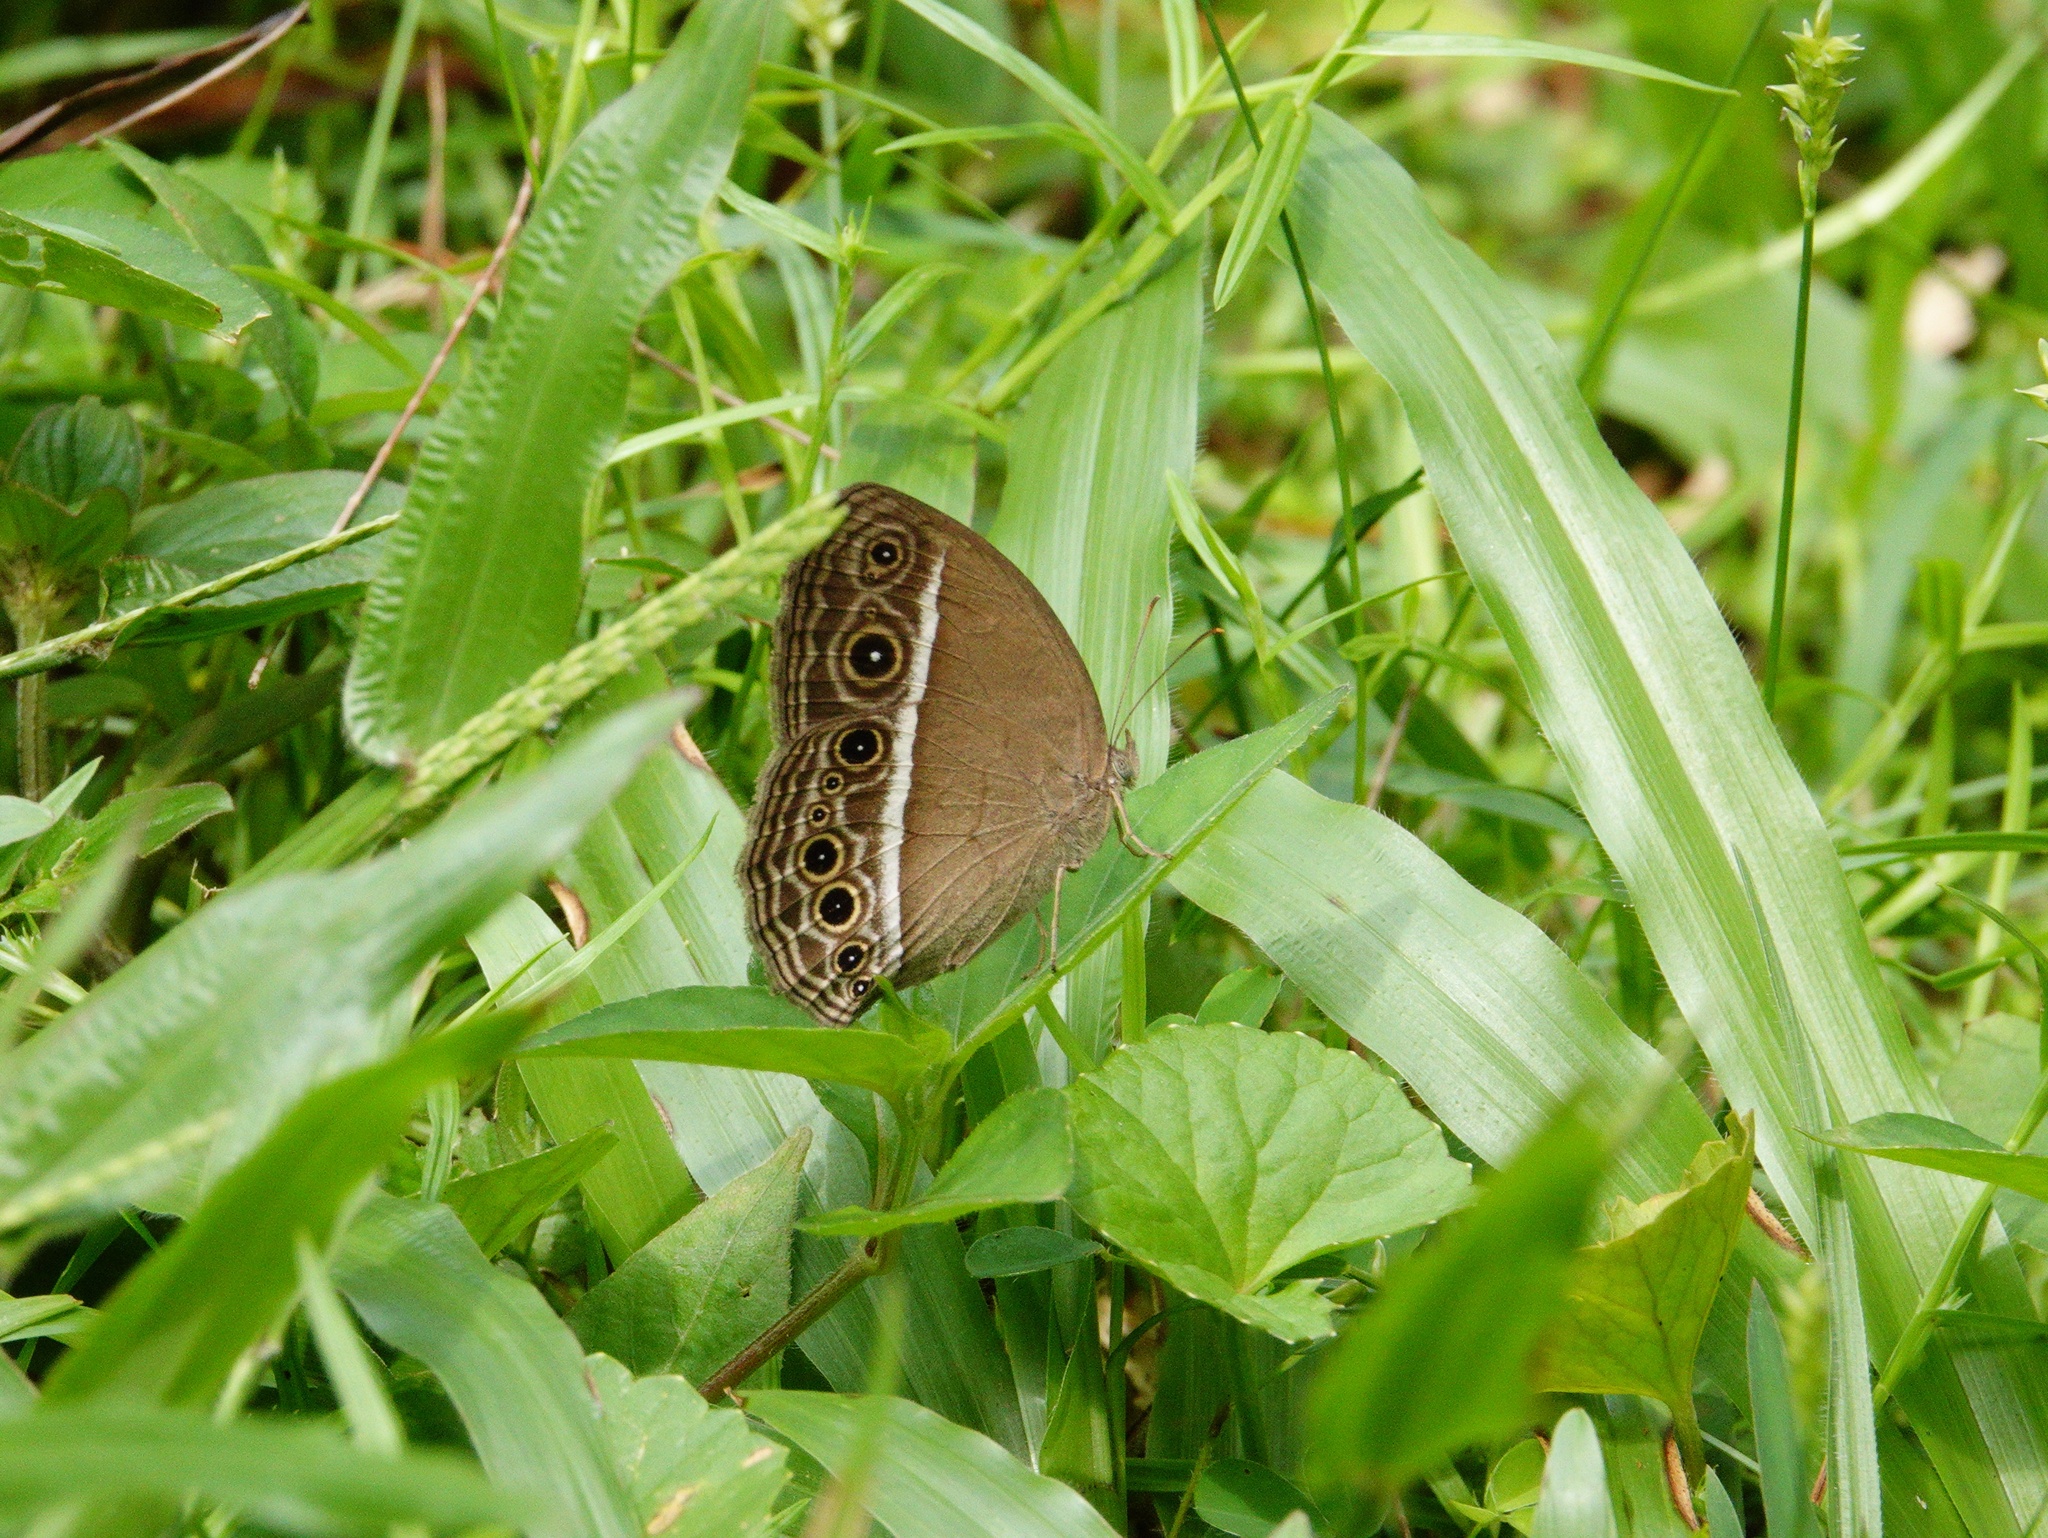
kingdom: Animalia
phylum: Arthropoda
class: Insecta
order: Lepidoptera
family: Nymphalidae
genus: Mycalesis
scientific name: Mycalesis mineus
